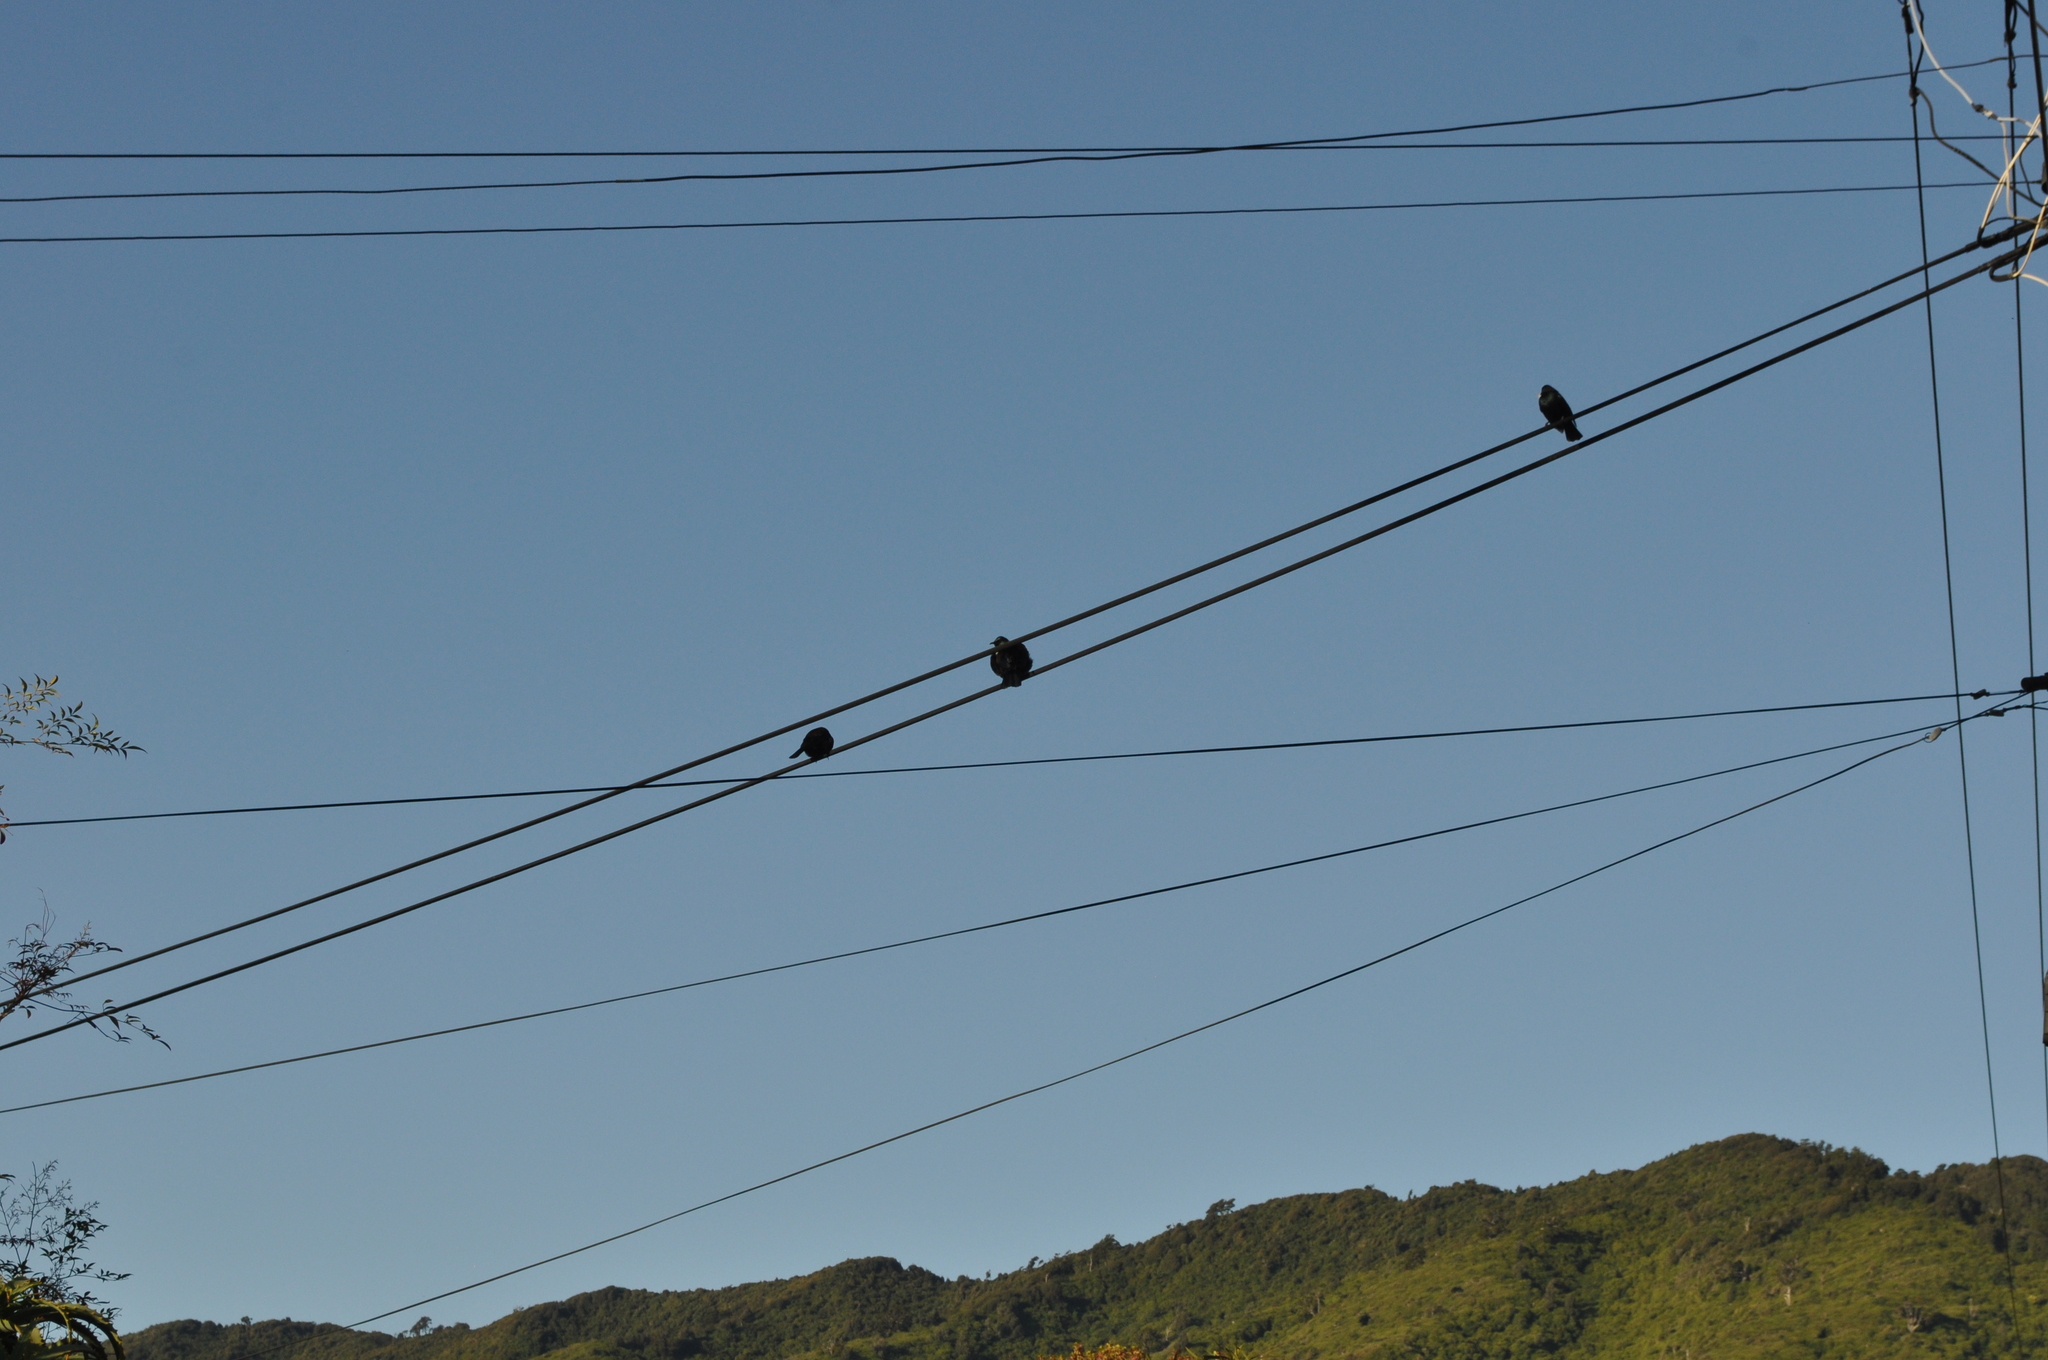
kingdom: Animalia
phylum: Chordata
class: Aves
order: Passeriformes
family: Meliphagidae
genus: Prosthemadera
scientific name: Prosthemadera novaeseelandiae
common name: Tui
